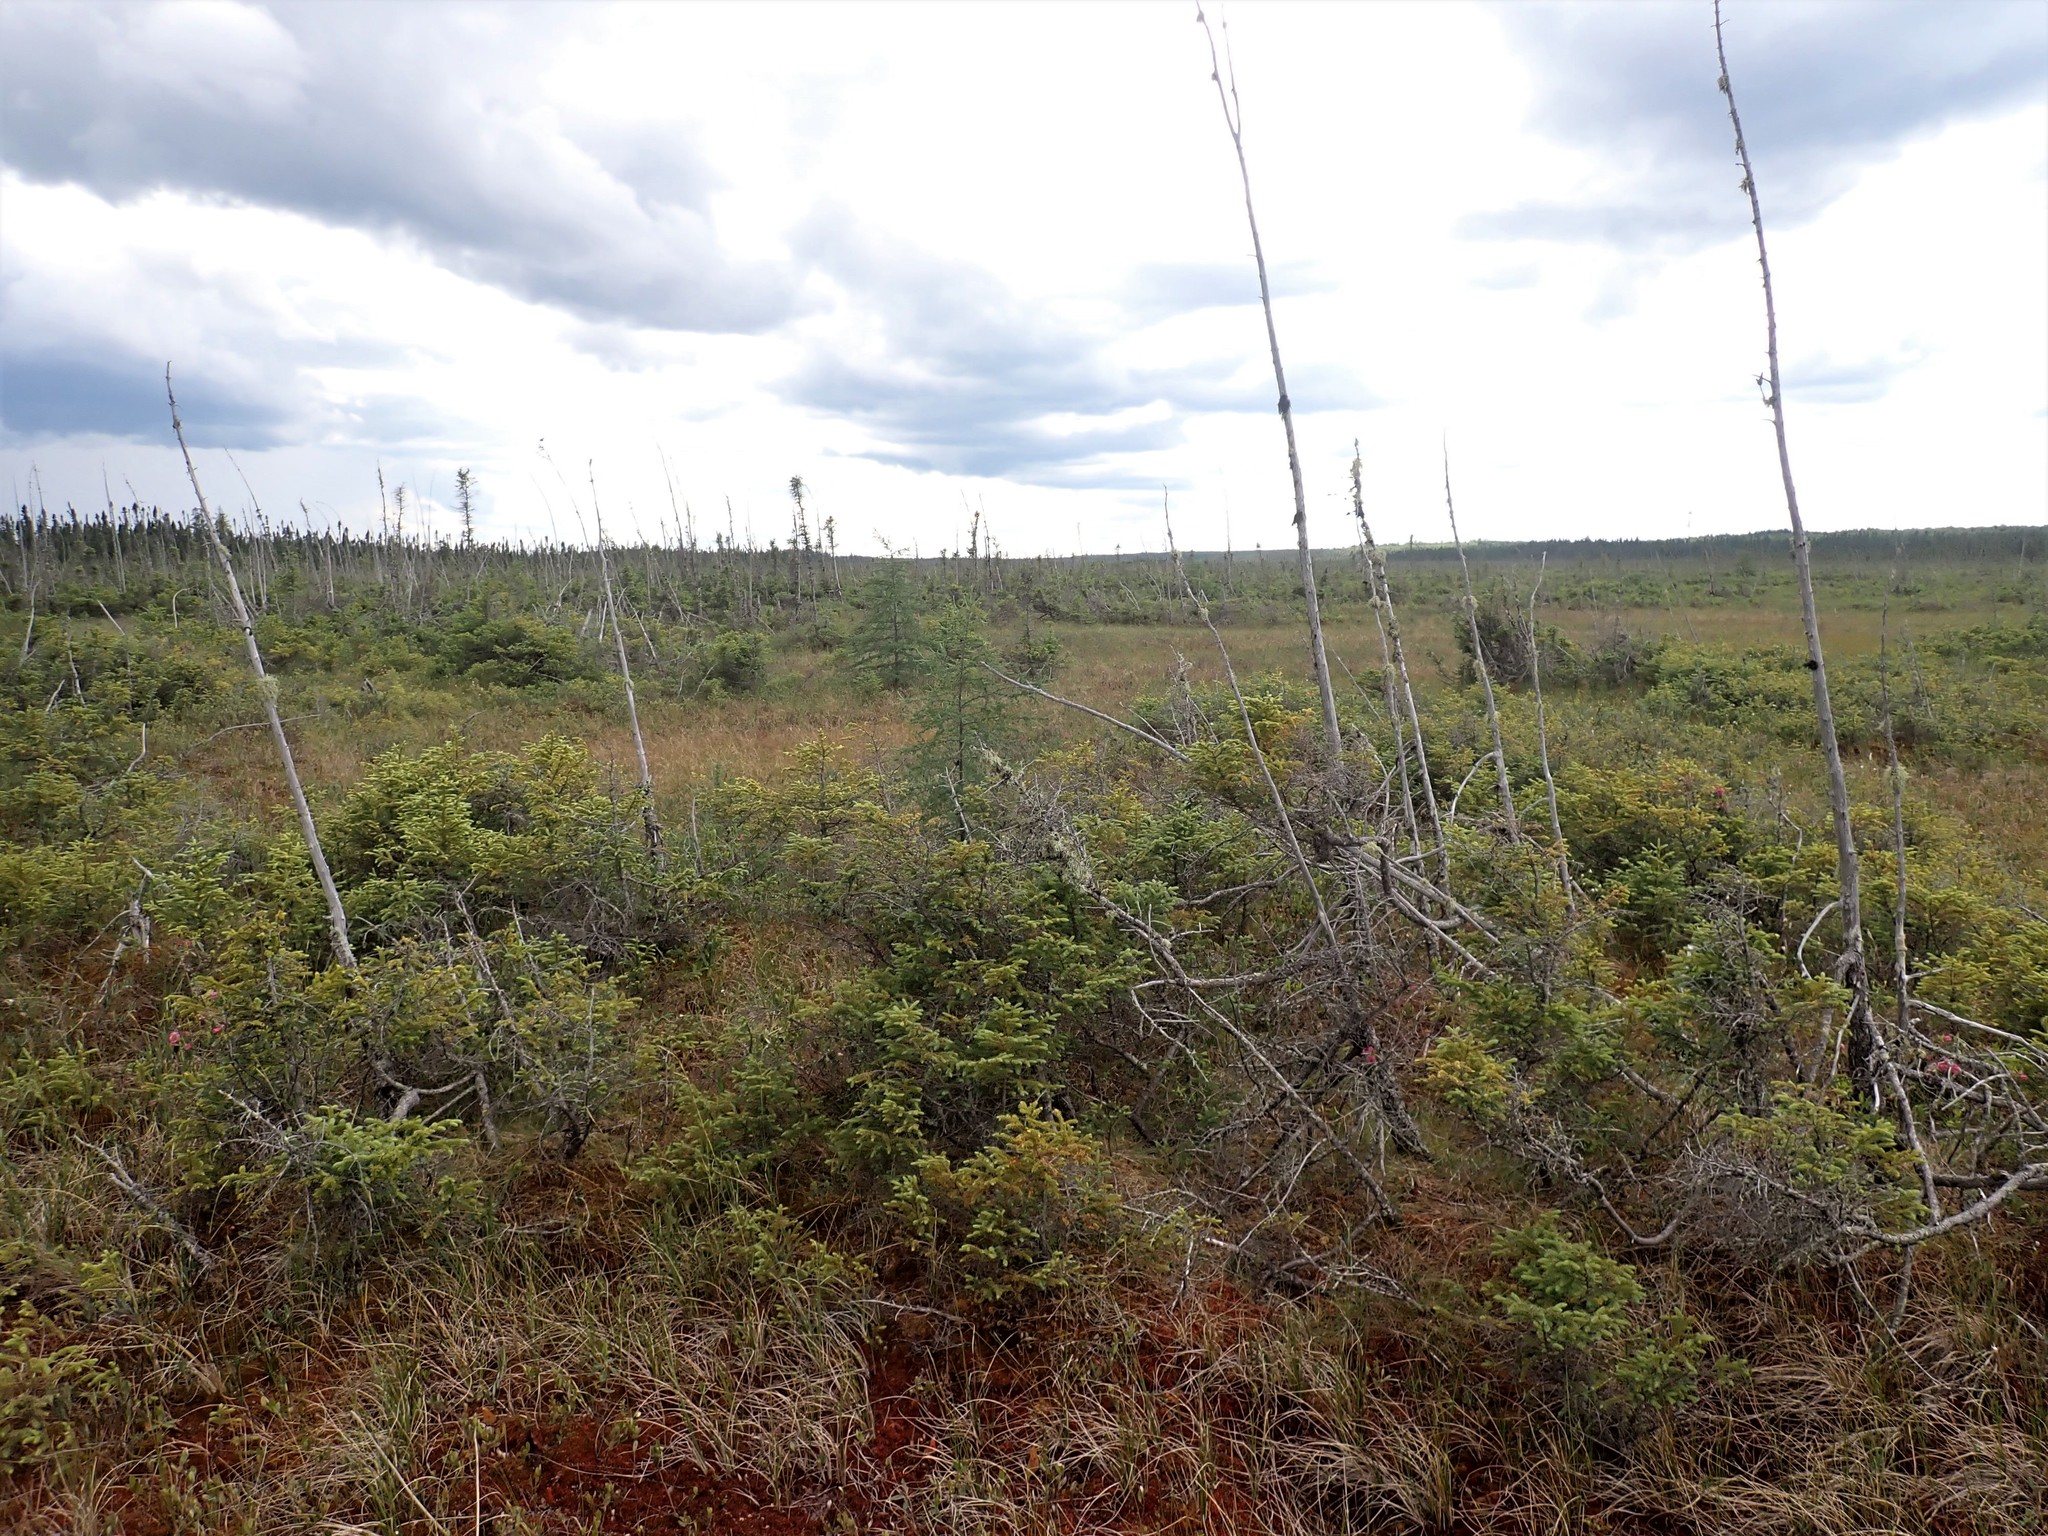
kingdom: Plantae
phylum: Tracheophyta
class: Pinopsida
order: Pinales
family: Pinaceae
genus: Picea
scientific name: Picea mariana
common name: Black spruce
